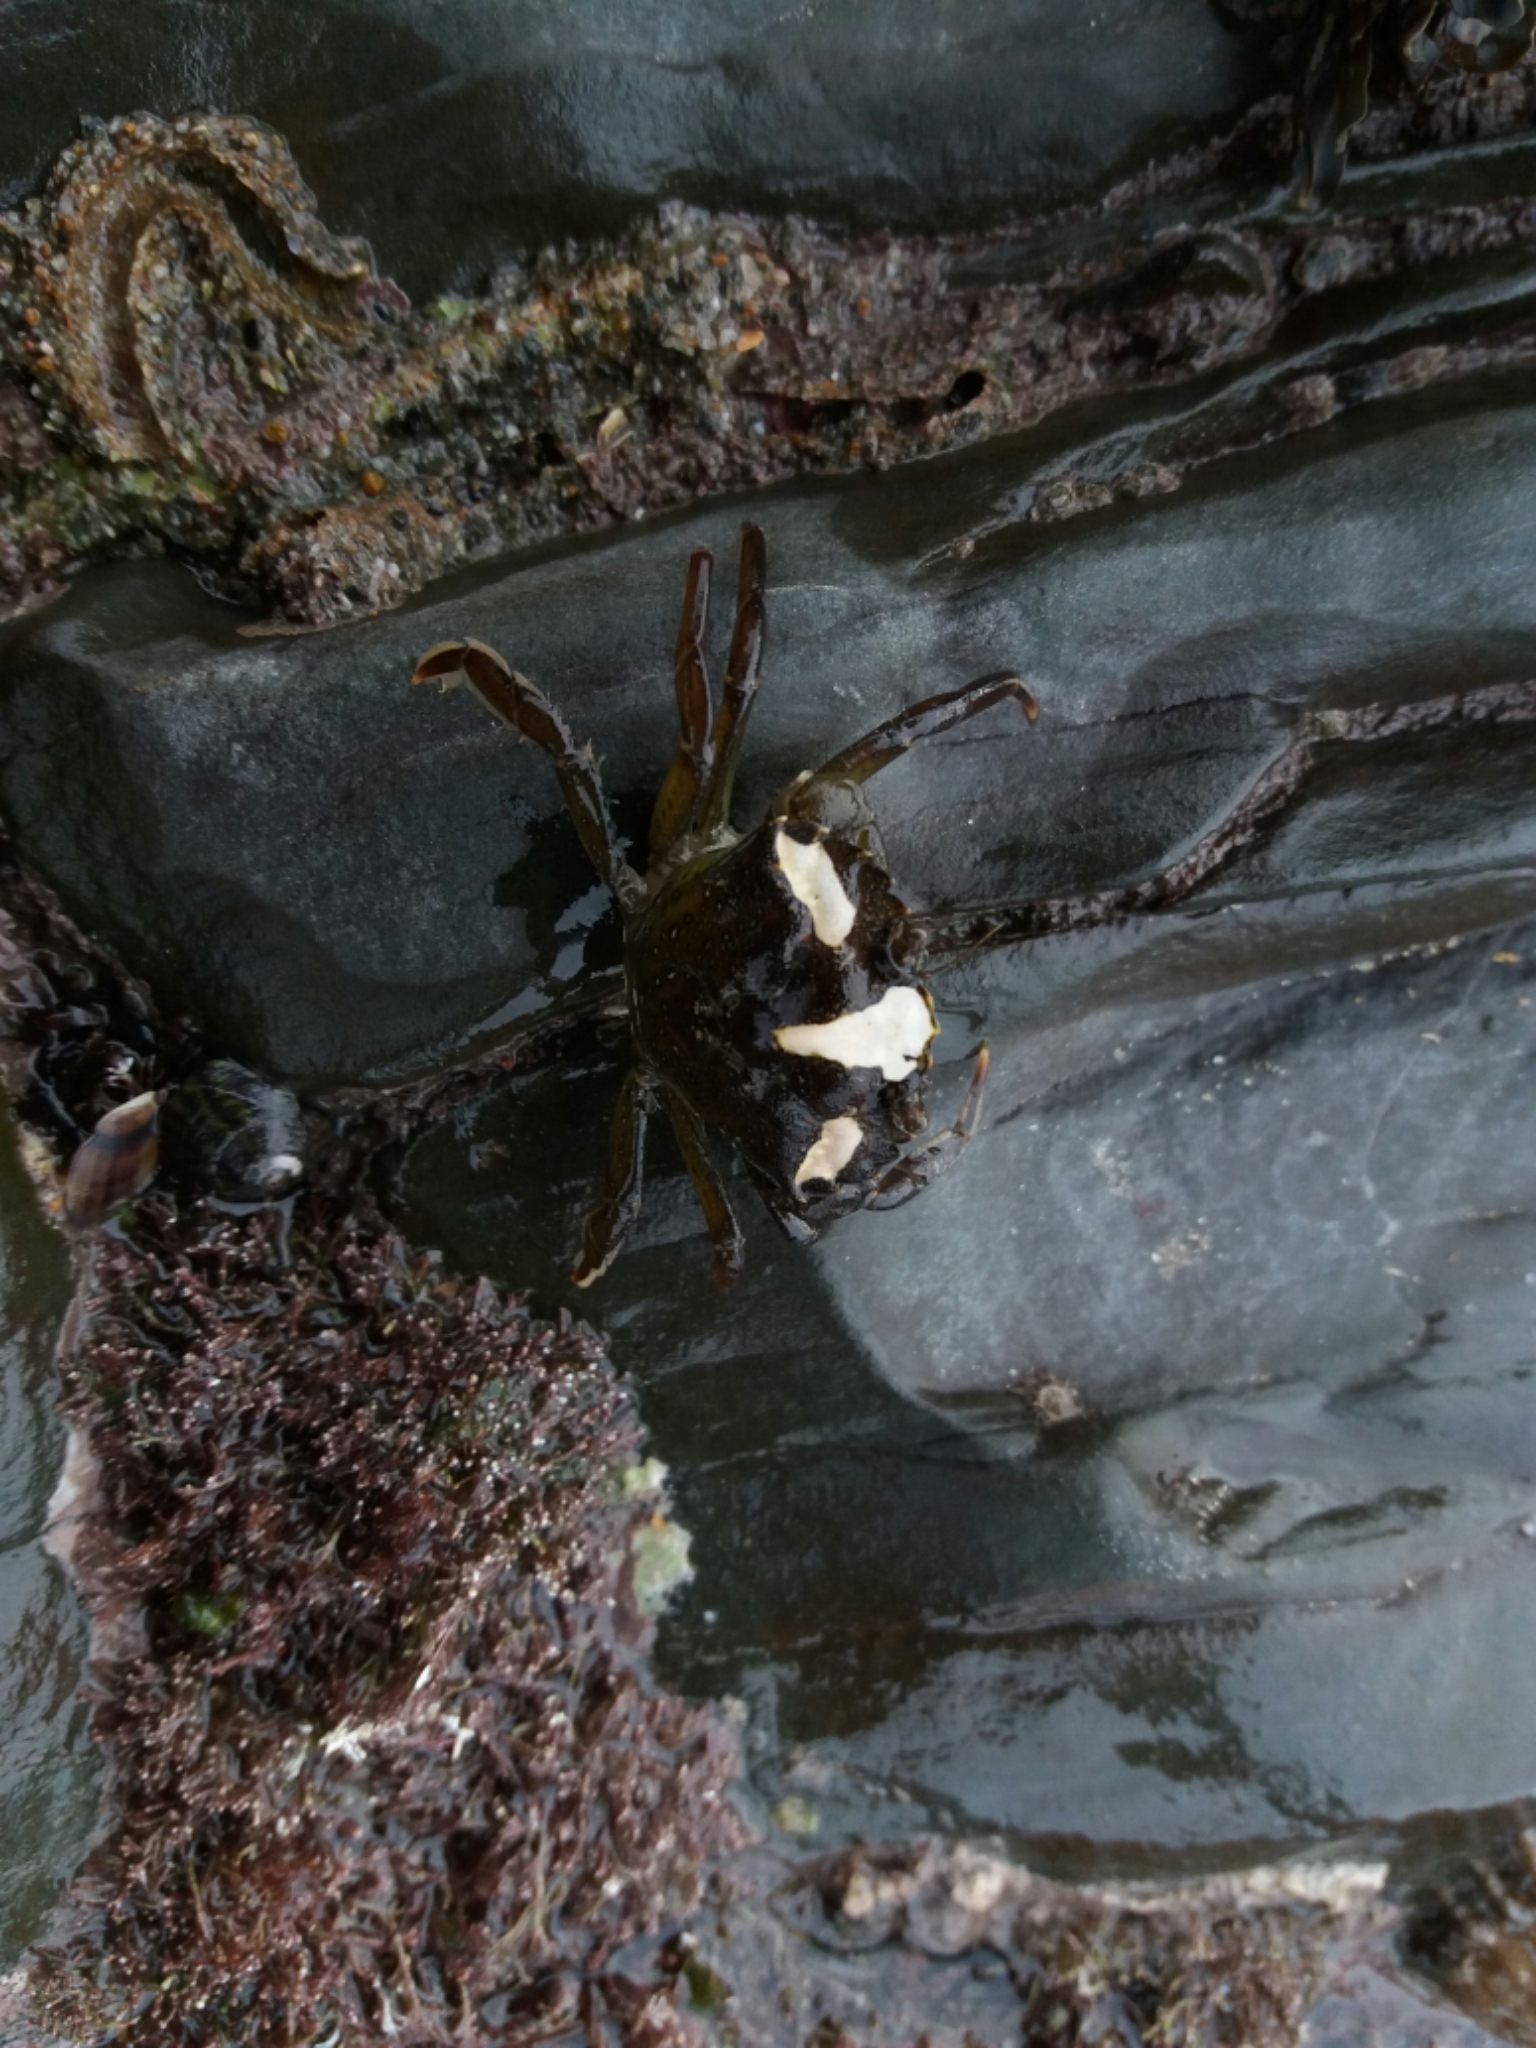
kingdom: Animalia
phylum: Arthropoda
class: Malacostraca
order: Decapoda
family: Carcinidae
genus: Carcinus
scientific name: Carcinus maenas
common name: European green crab
